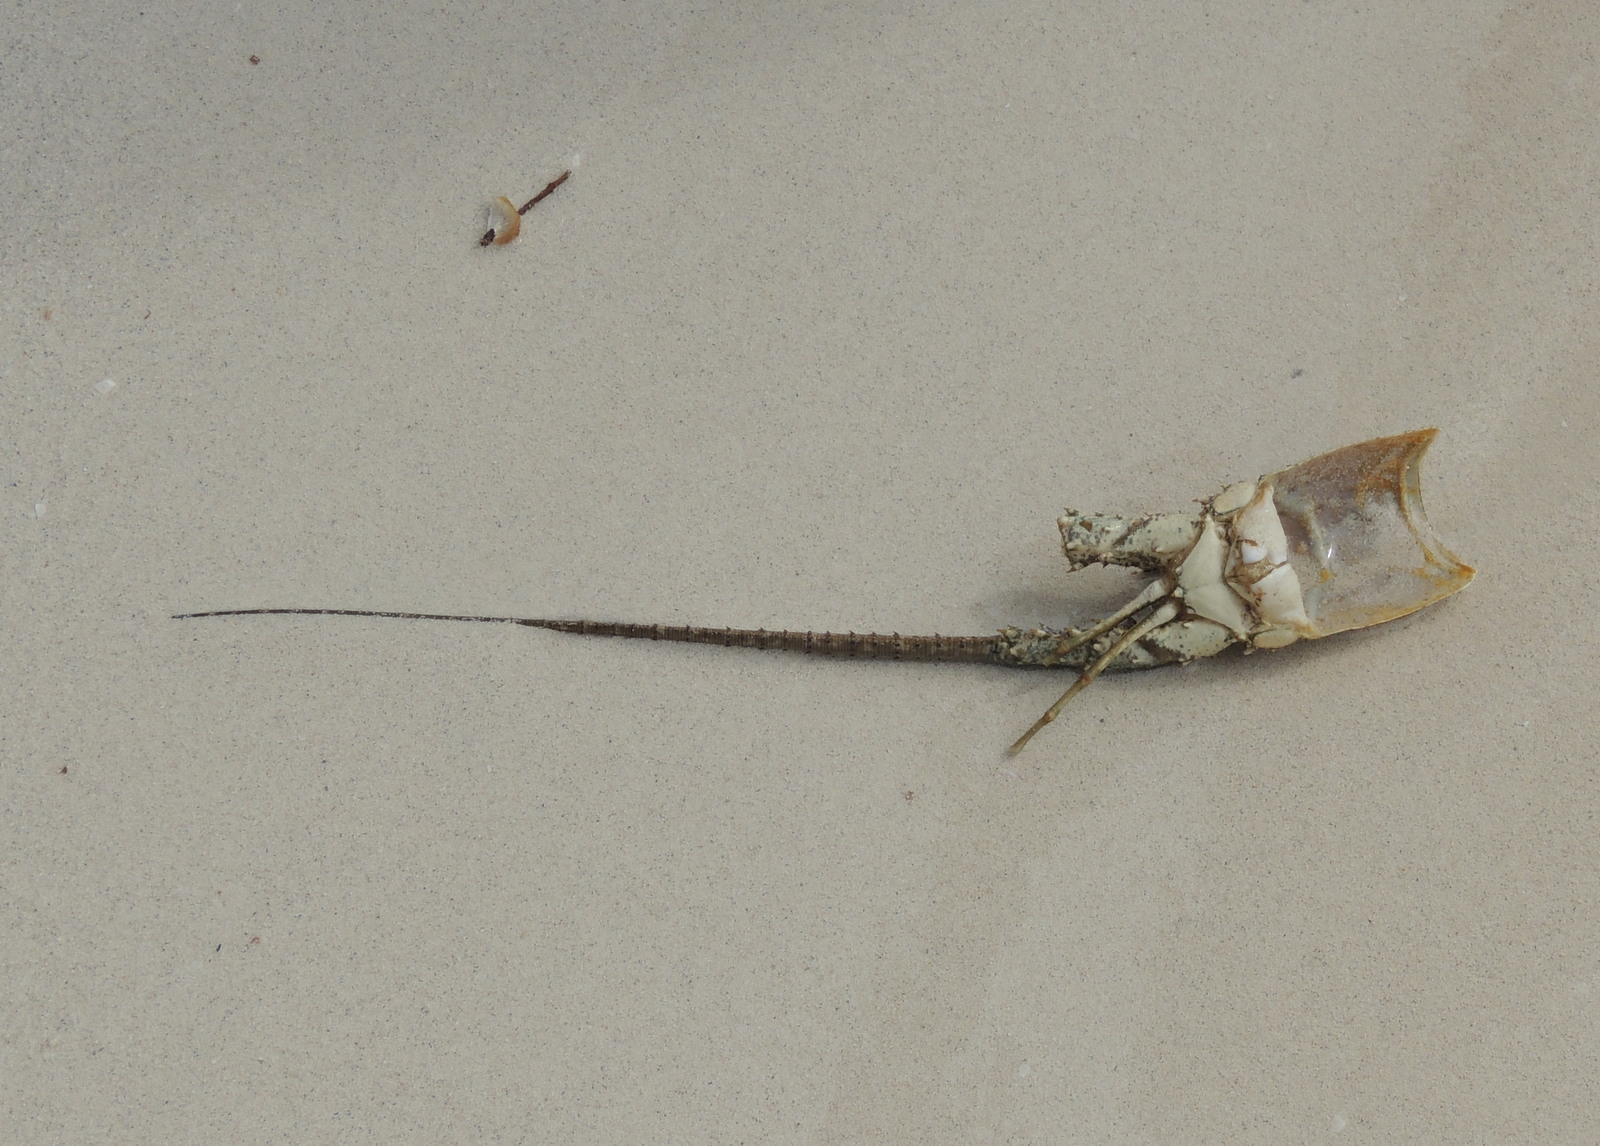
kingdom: Animalia
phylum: Arthropoda
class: Malacostraca
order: Decapoda
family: Palinuridae
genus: Panulirus
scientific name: Panulirus argus
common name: Caribbean spiny lobster
